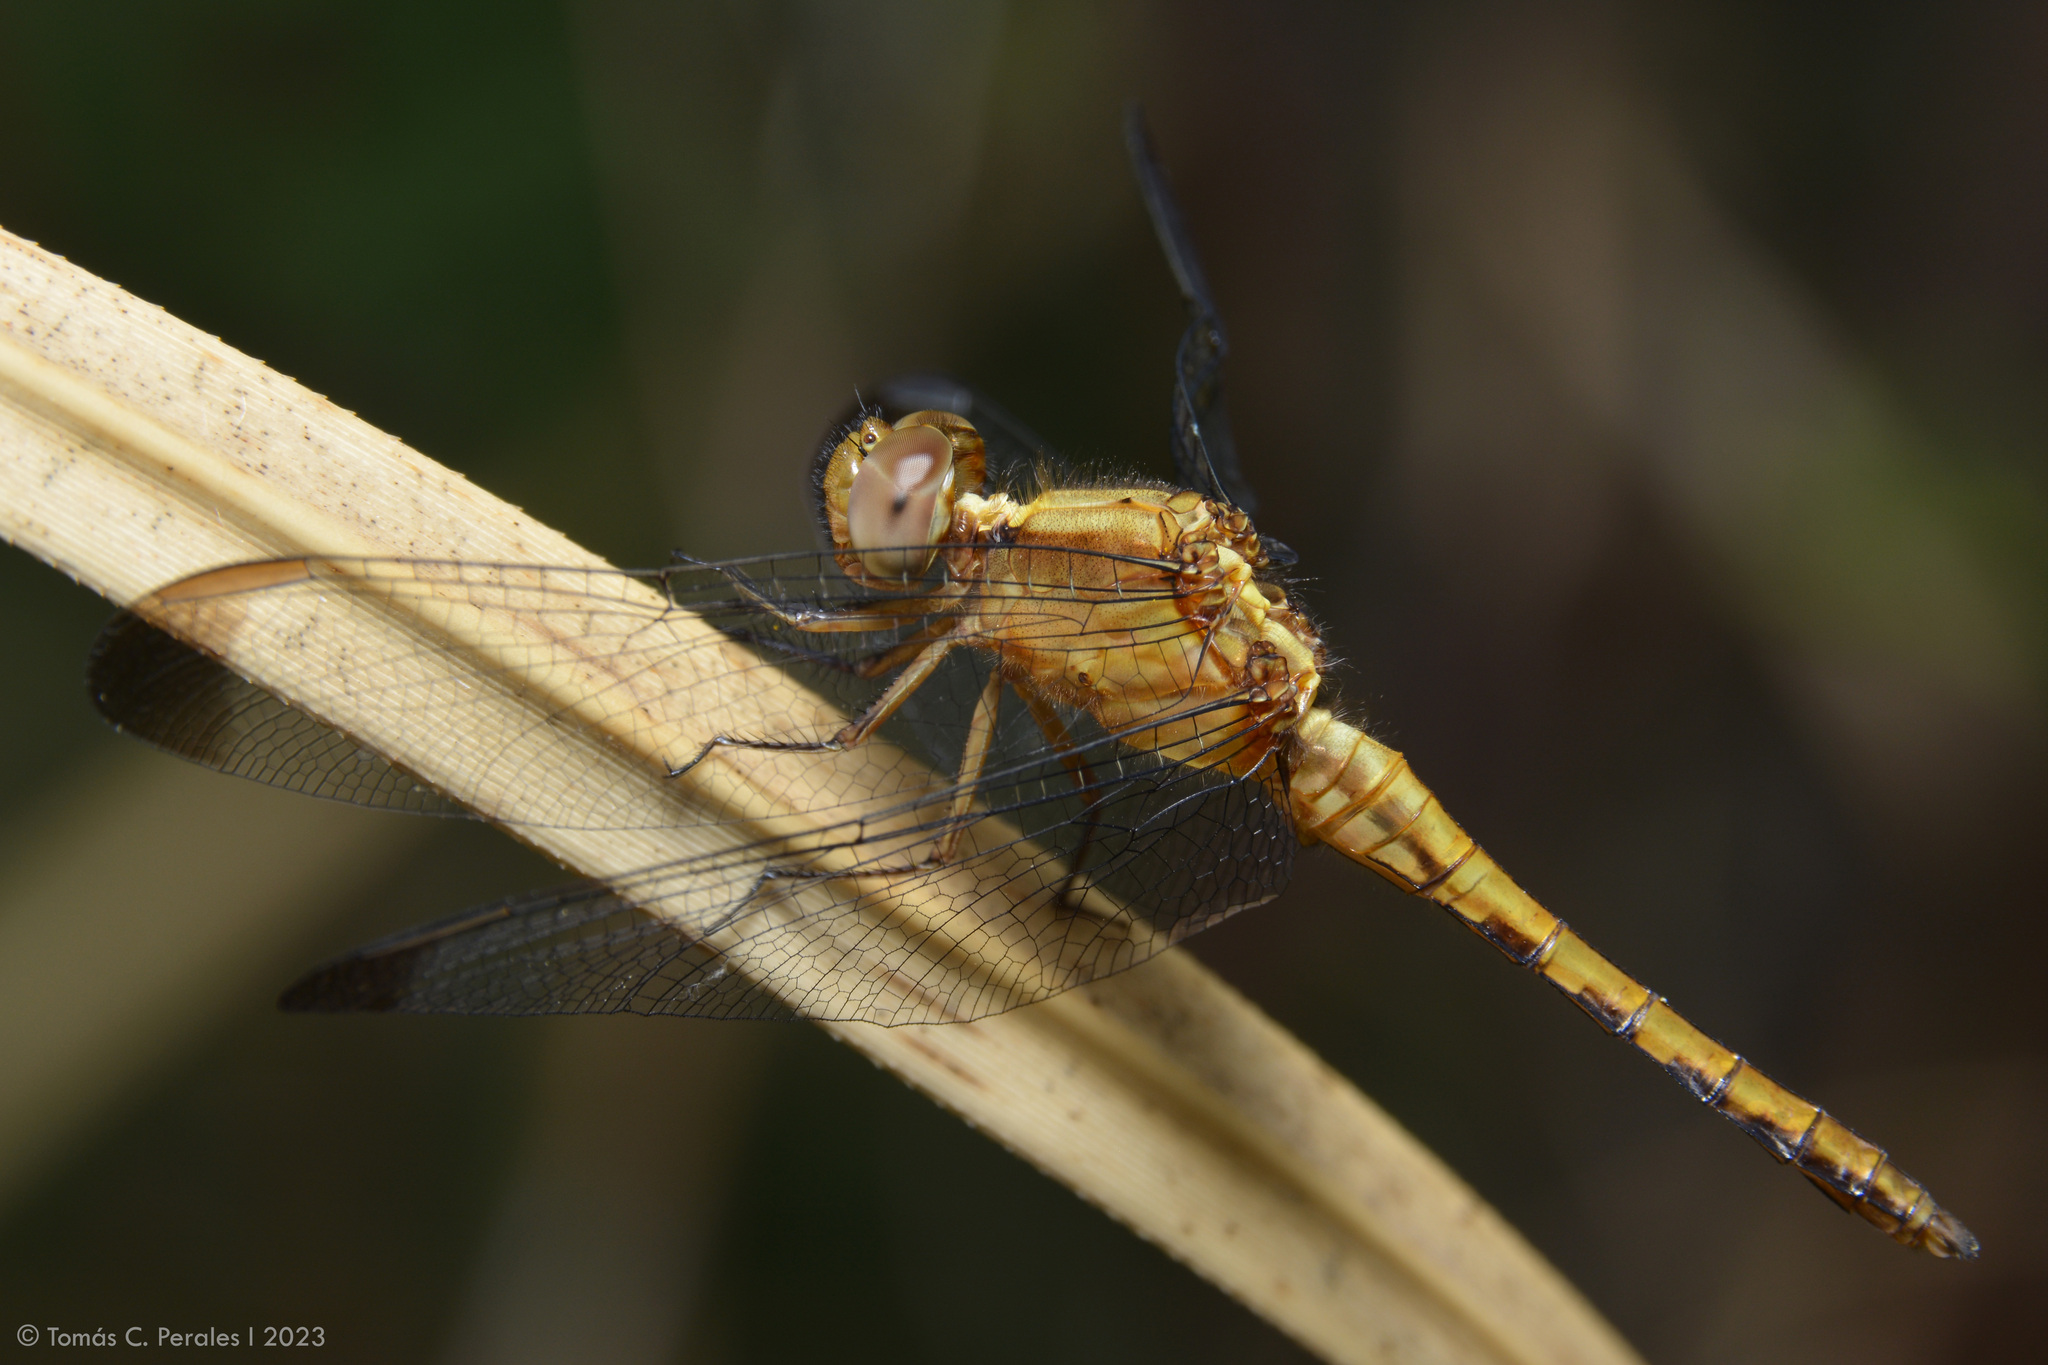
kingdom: Animalia
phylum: Arthropoda
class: Insecta
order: Odonata
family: Libellulidae
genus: Erythrodiplax
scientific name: Erythrodiplax atroterminata
